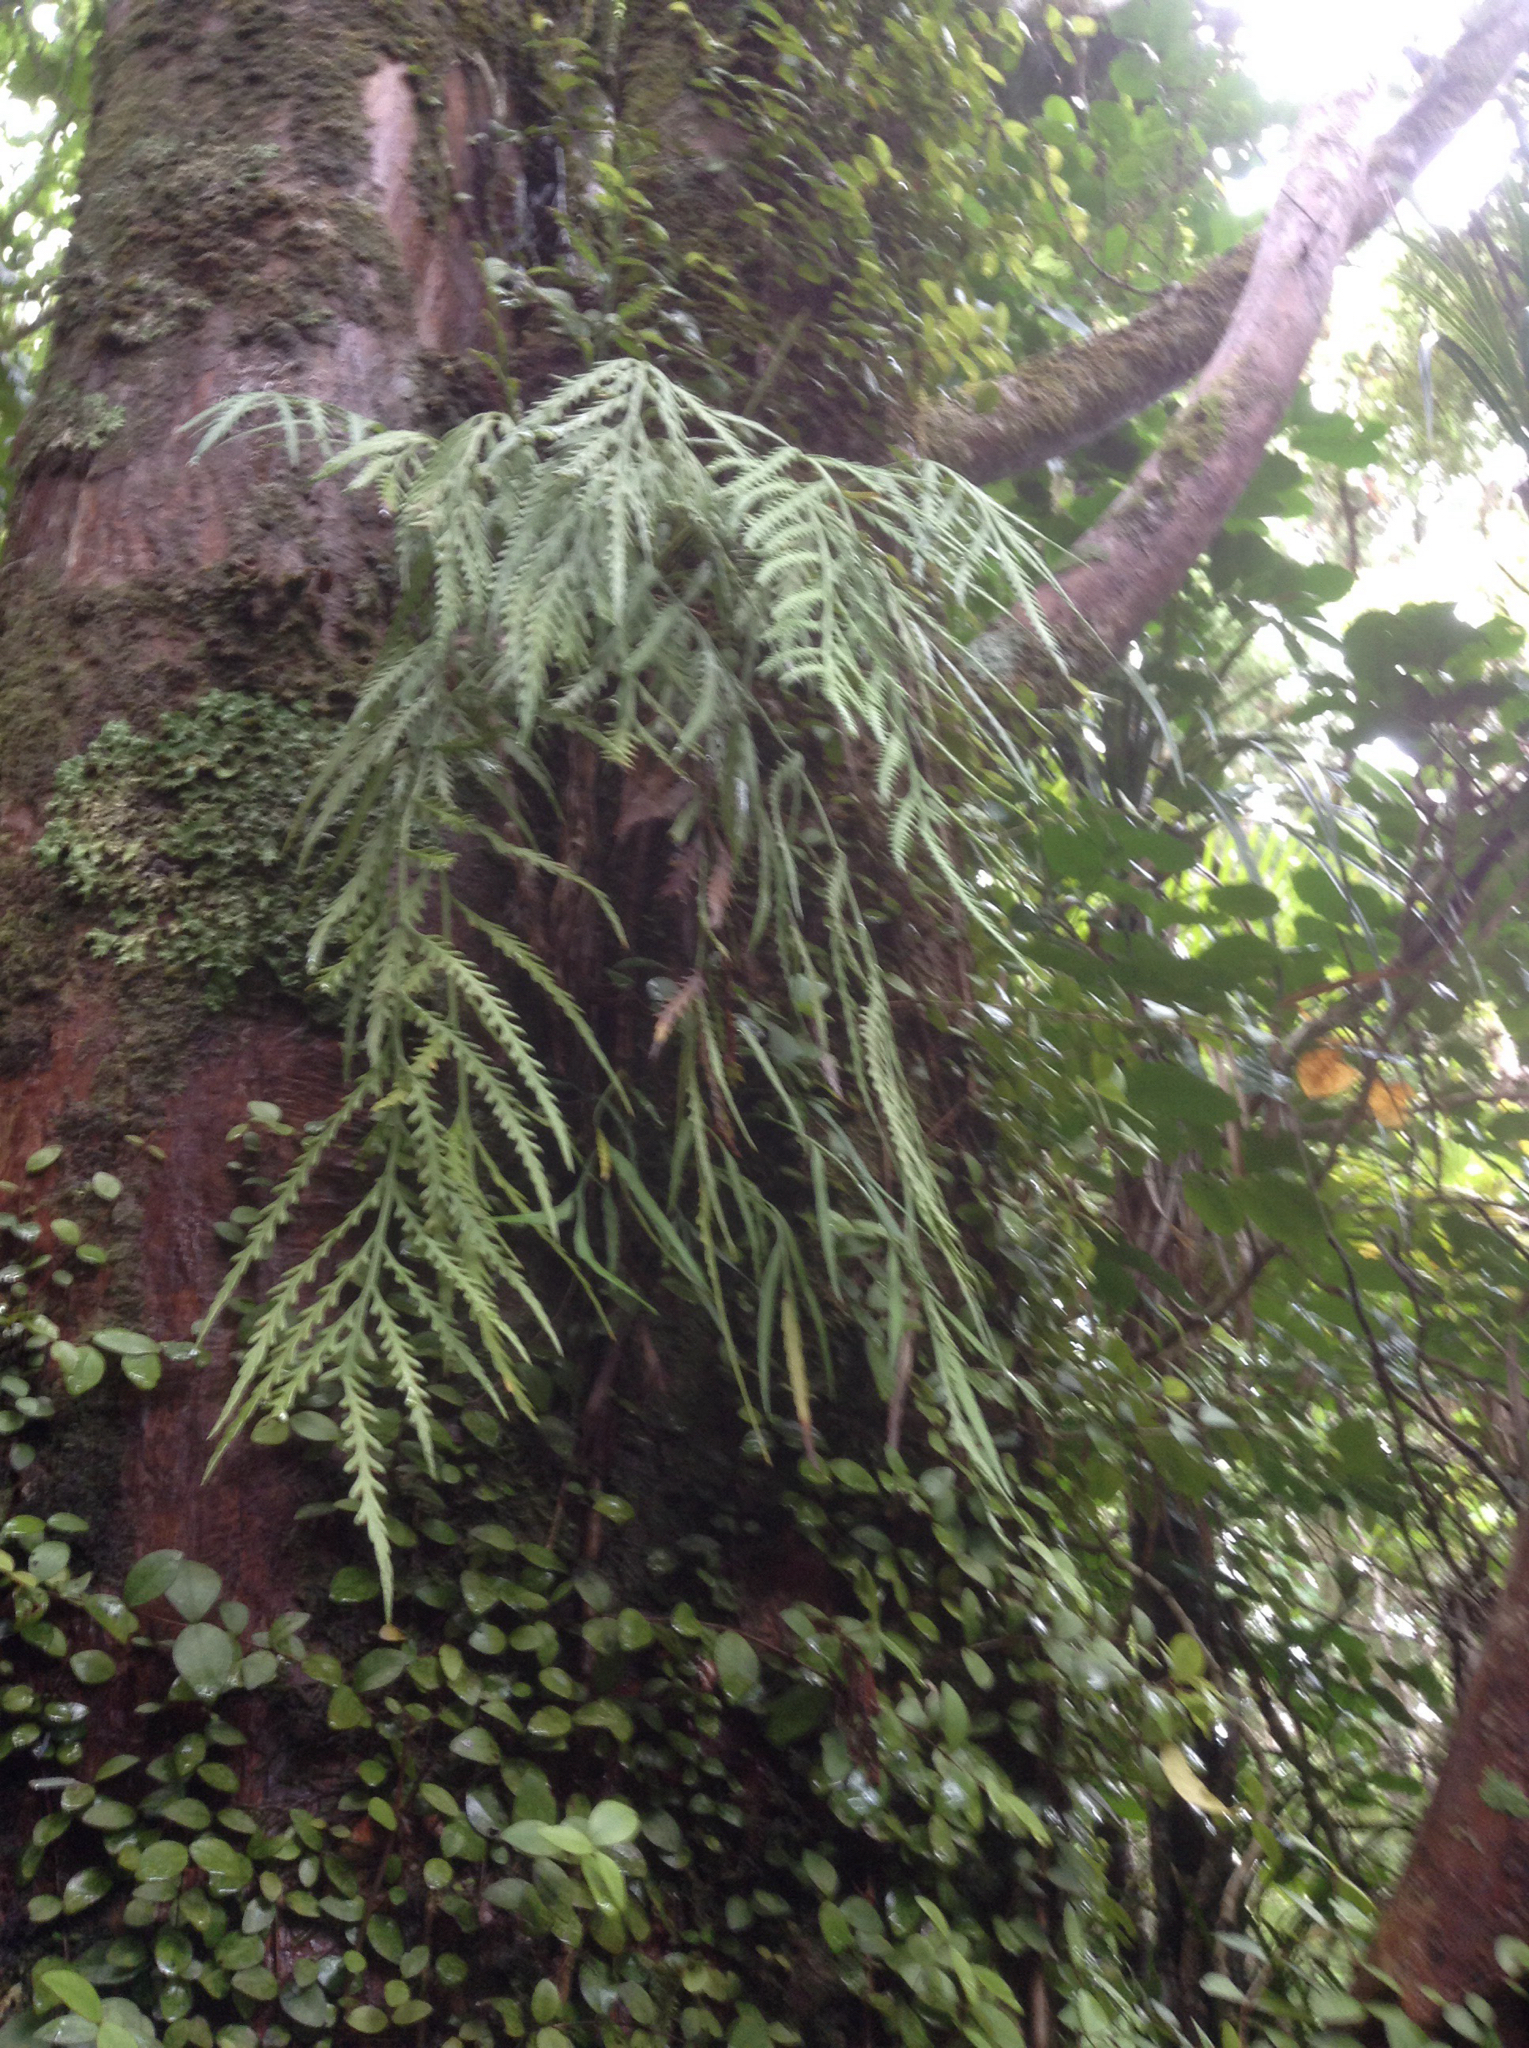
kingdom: Plantae
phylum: Tracheophyta
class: Polypodiopsida
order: Polypodiales
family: Aspleniaceae
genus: Asplenium
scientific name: Asplenium flaccidum
